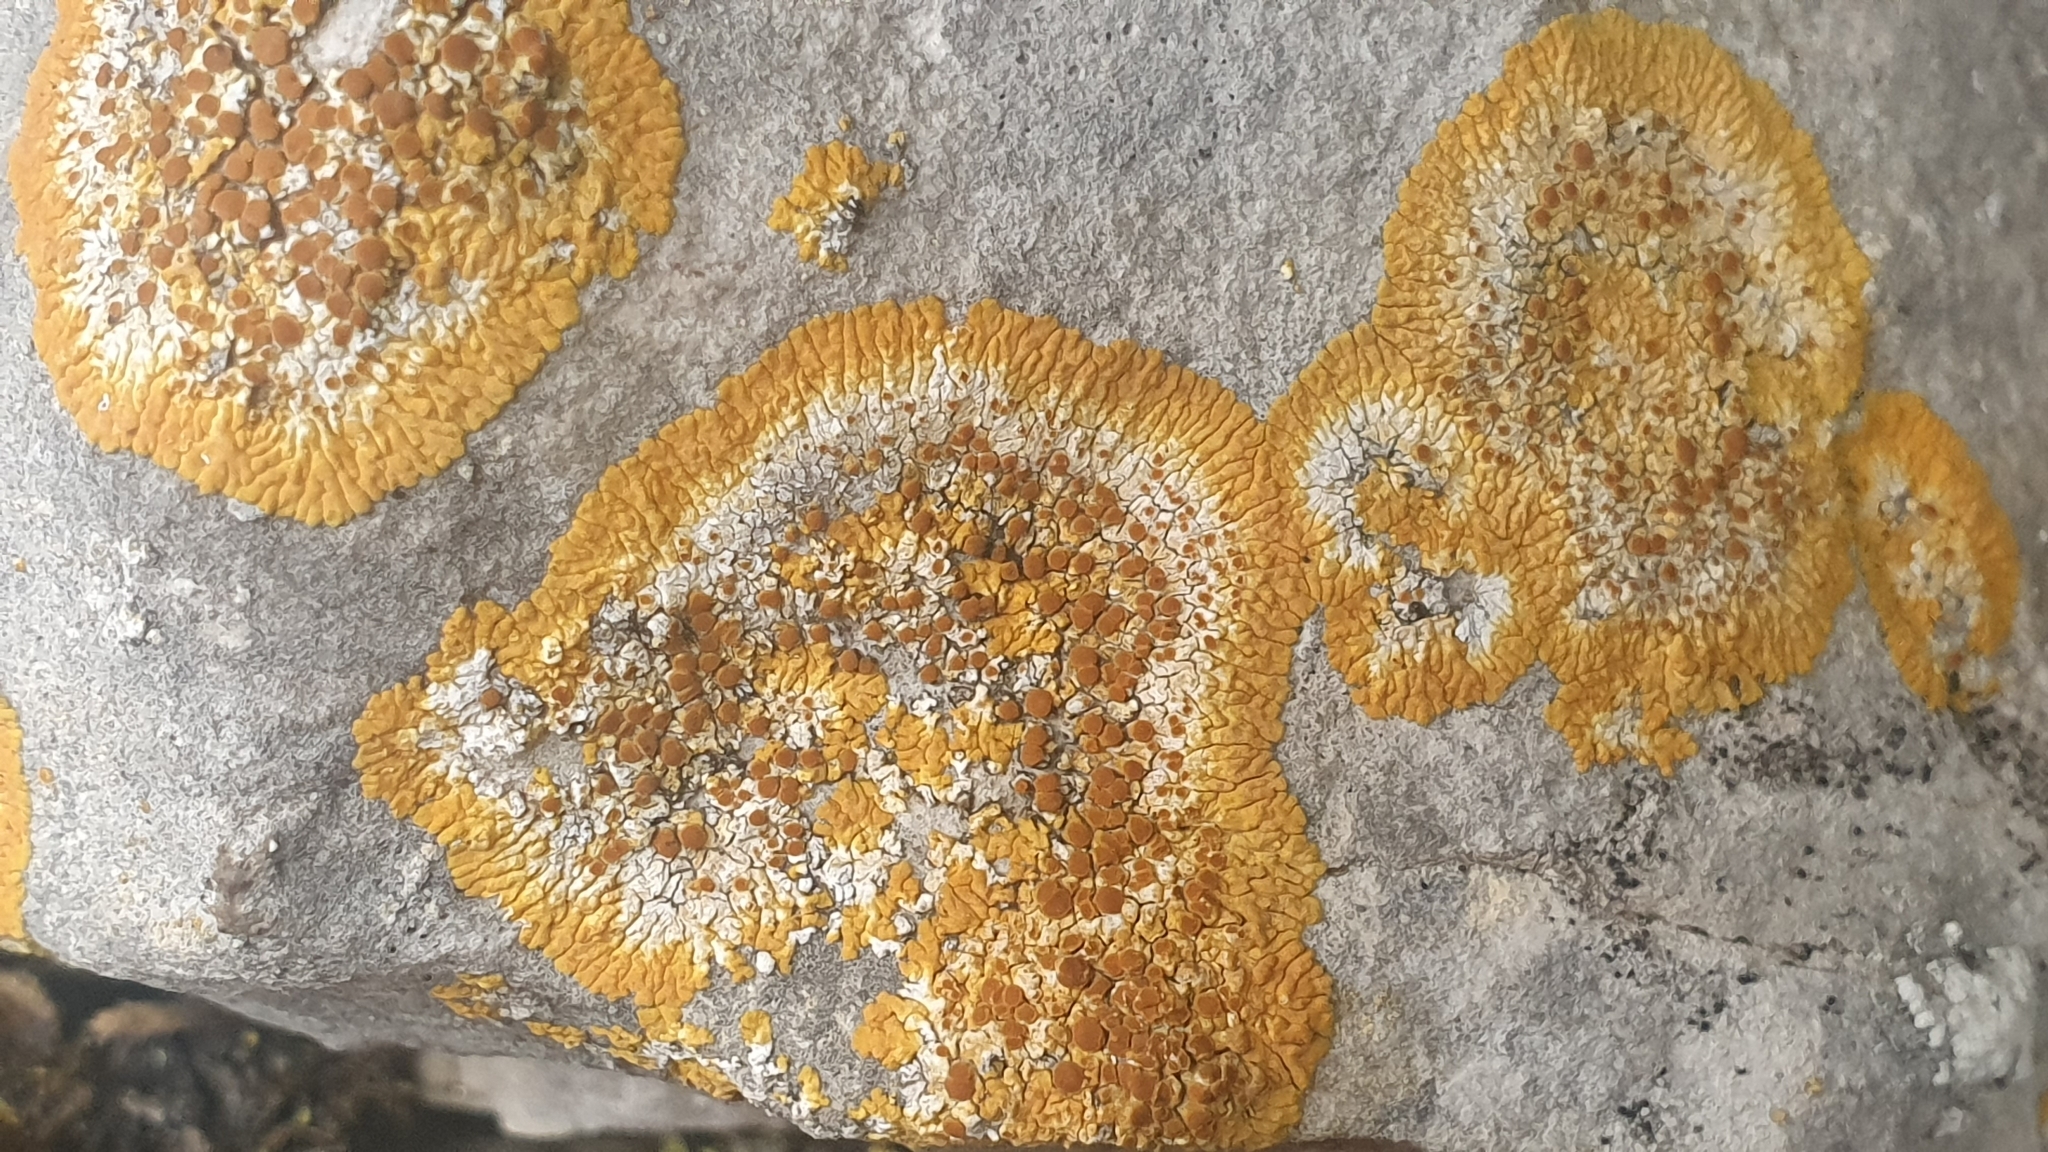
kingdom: Fungi
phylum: Ascomycota
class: Lecanoromycetes
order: Teloschistales
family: Teloschistaceae
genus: Variospora
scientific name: Variospora aurantia
